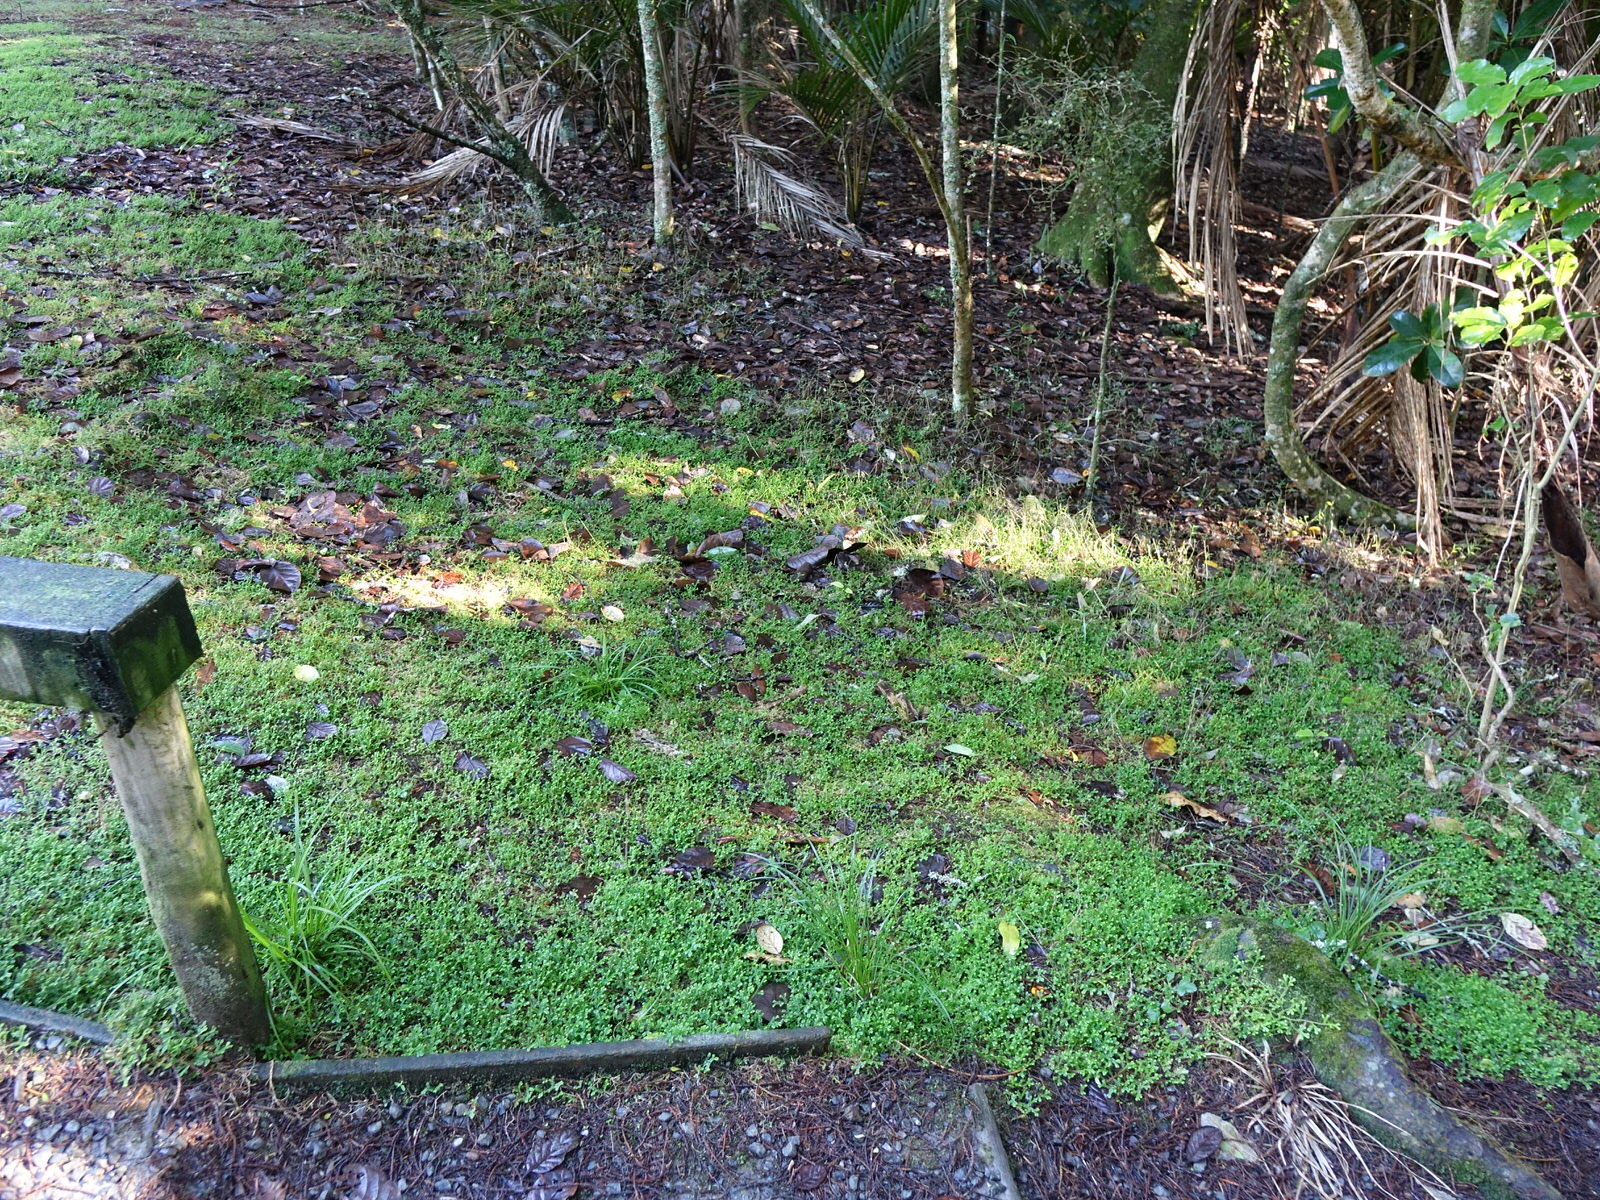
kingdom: Plantae
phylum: Tracheophyta
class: Lycopodiopsida
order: Selaginellales
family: Selaginellaceae
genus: Selaginella
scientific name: Selaginella kraussiana
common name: Krauss' spikemoss
